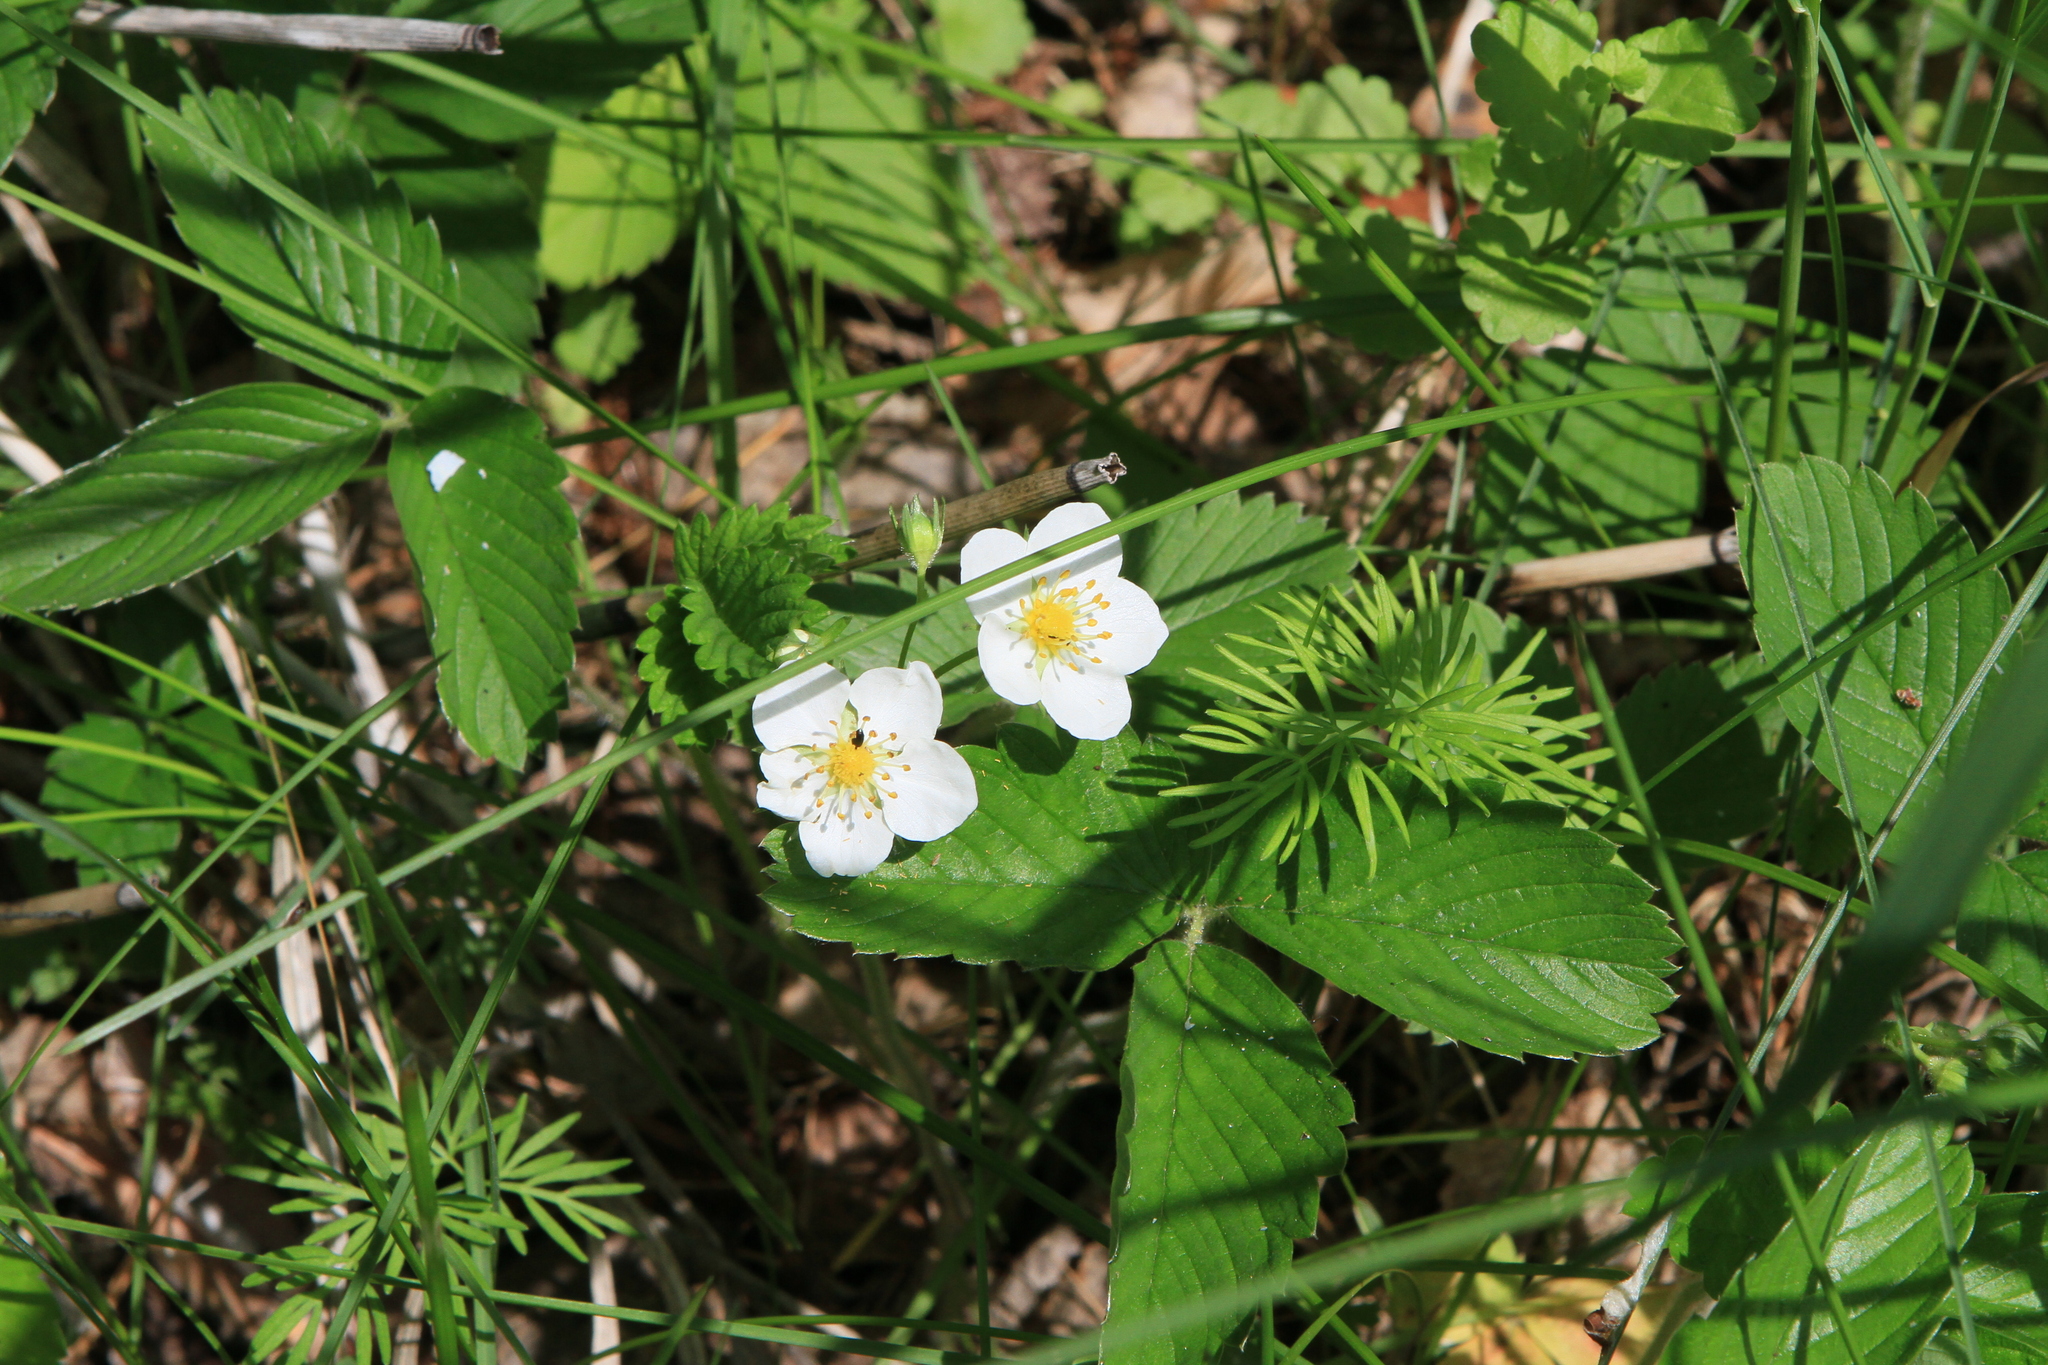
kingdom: Plantae
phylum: Tracheophyta
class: Magnoliopsida
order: Rosales
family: Rosaceae
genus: Fragaria
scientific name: Fragaria viridis
